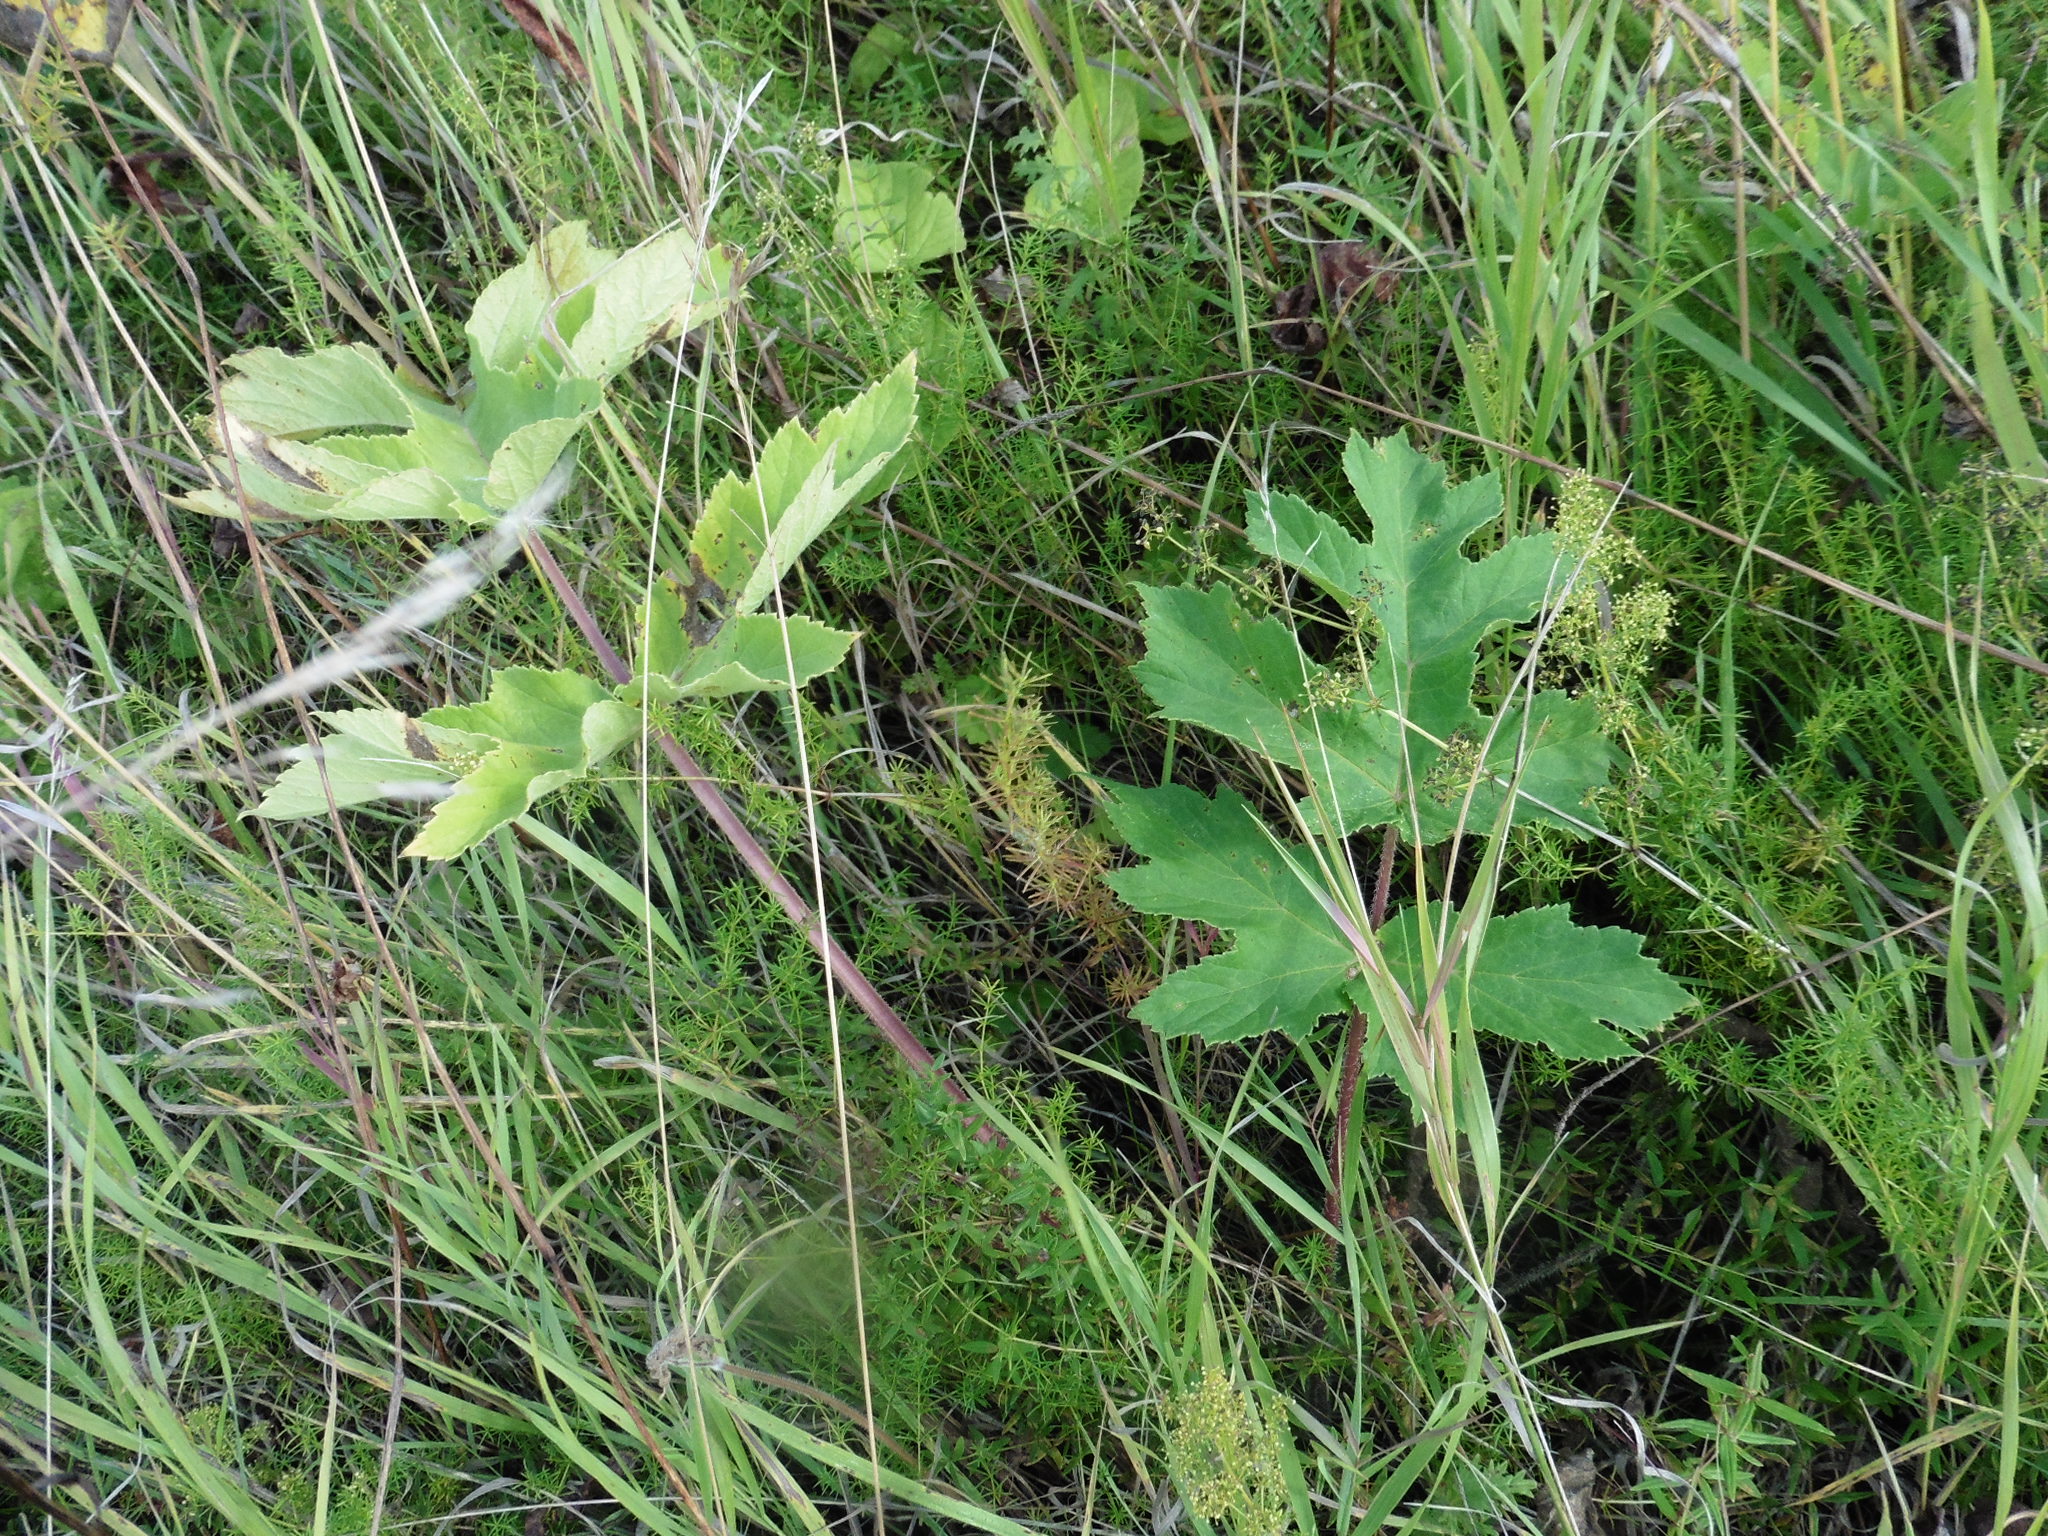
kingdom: Plantae
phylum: Tracheophyta
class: Magnoliopsida
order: Apiales
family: Apiaceae
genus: Heracleum
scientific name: Heracleum sphondylium
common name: Hogweed
